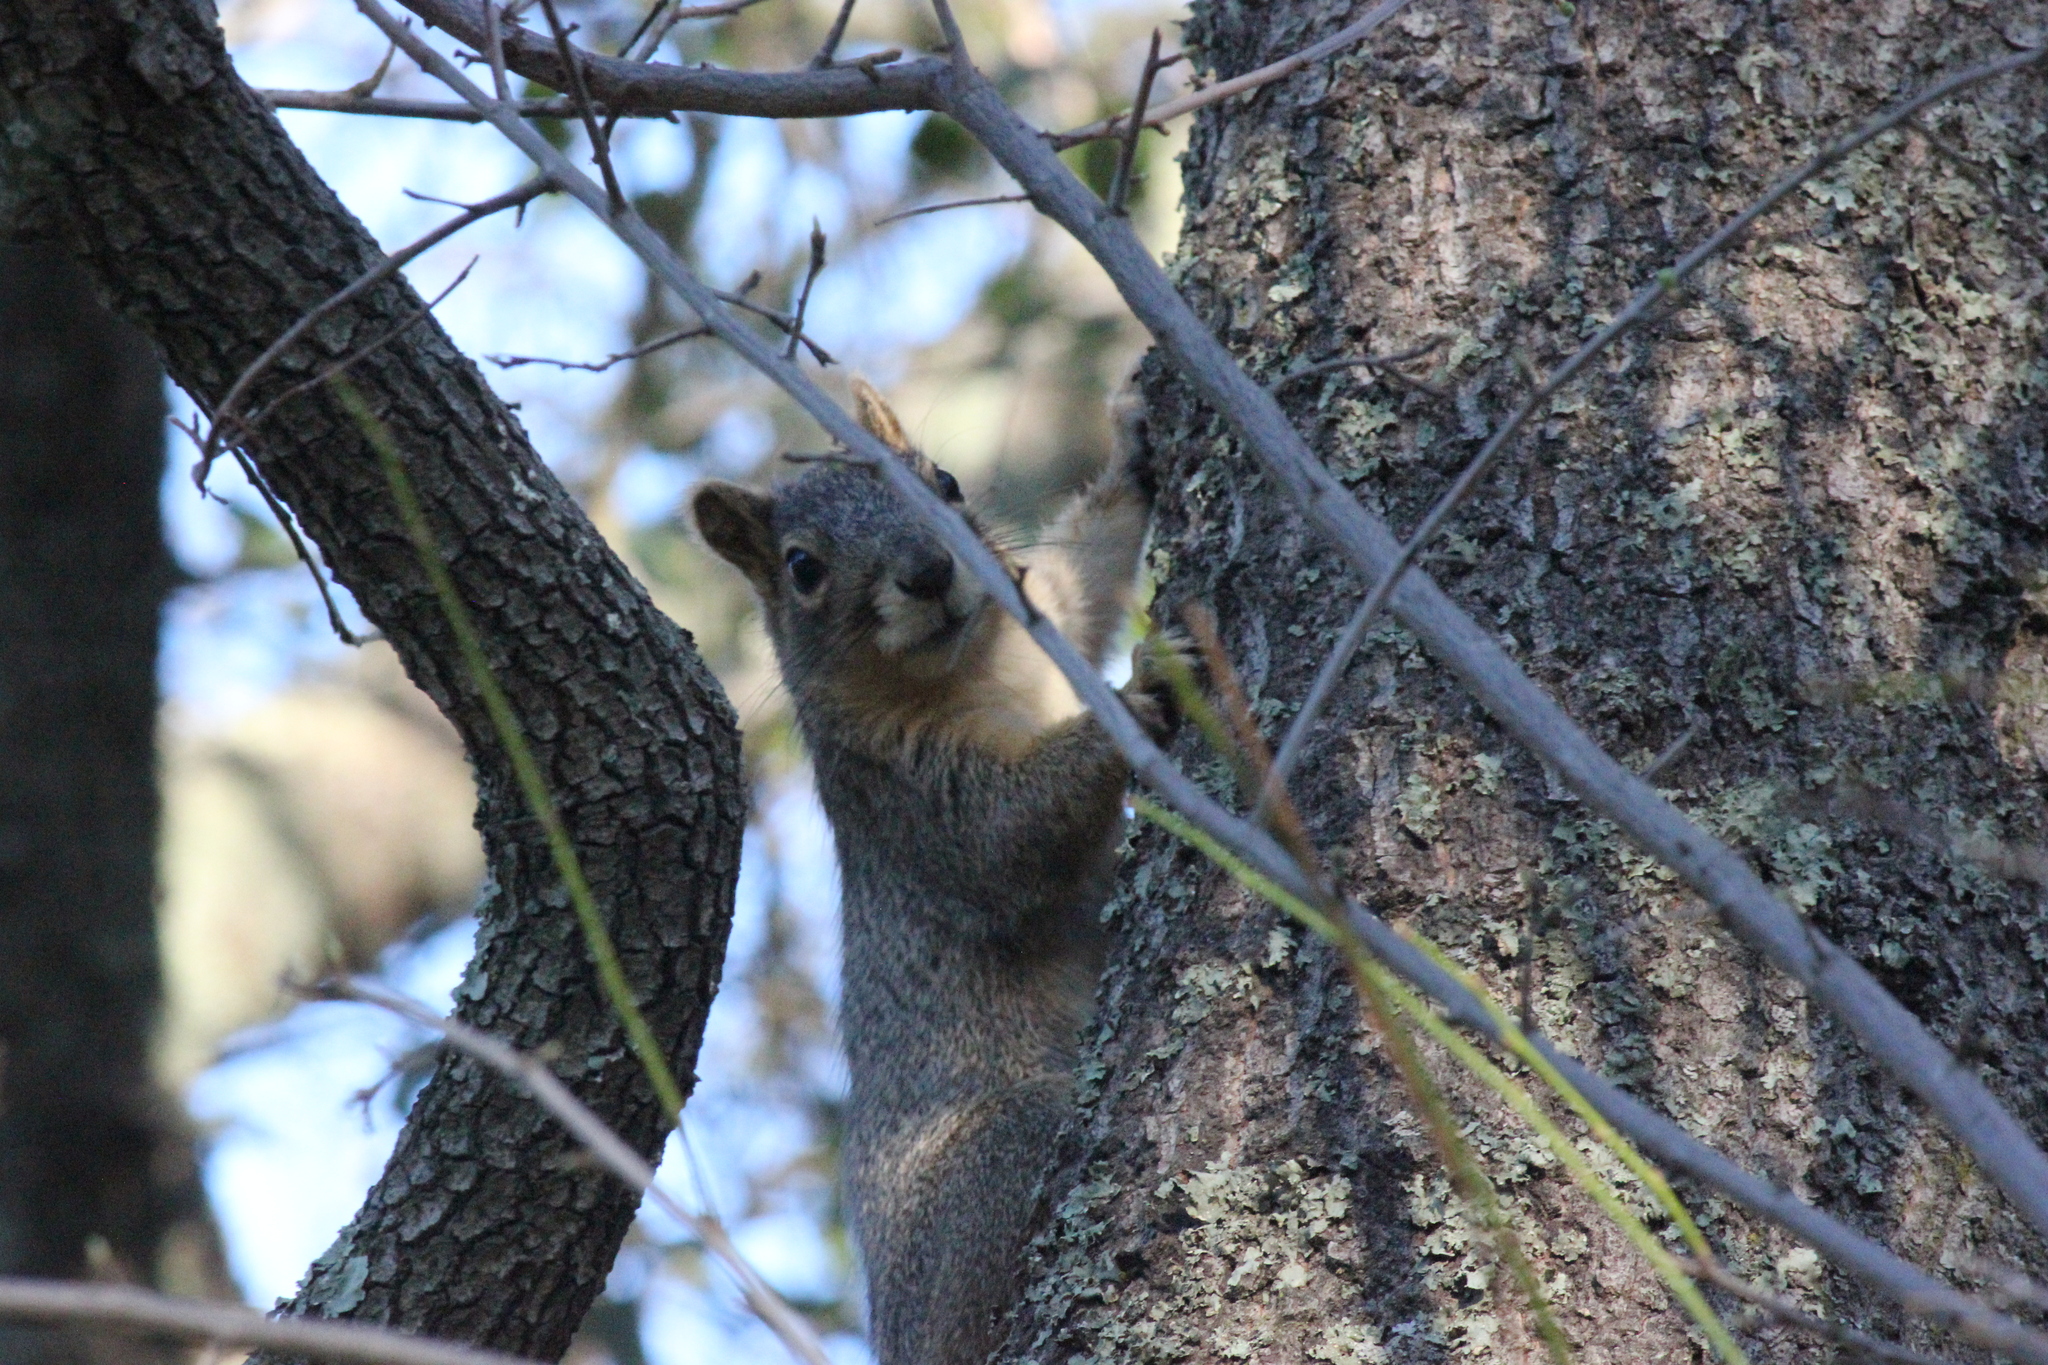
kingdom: Animalia
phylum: Chordata
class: Mammalia
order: Rodentia
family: Sciuridae
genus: Sciurus
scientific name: Sciurus niger
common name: Fox squirrel
